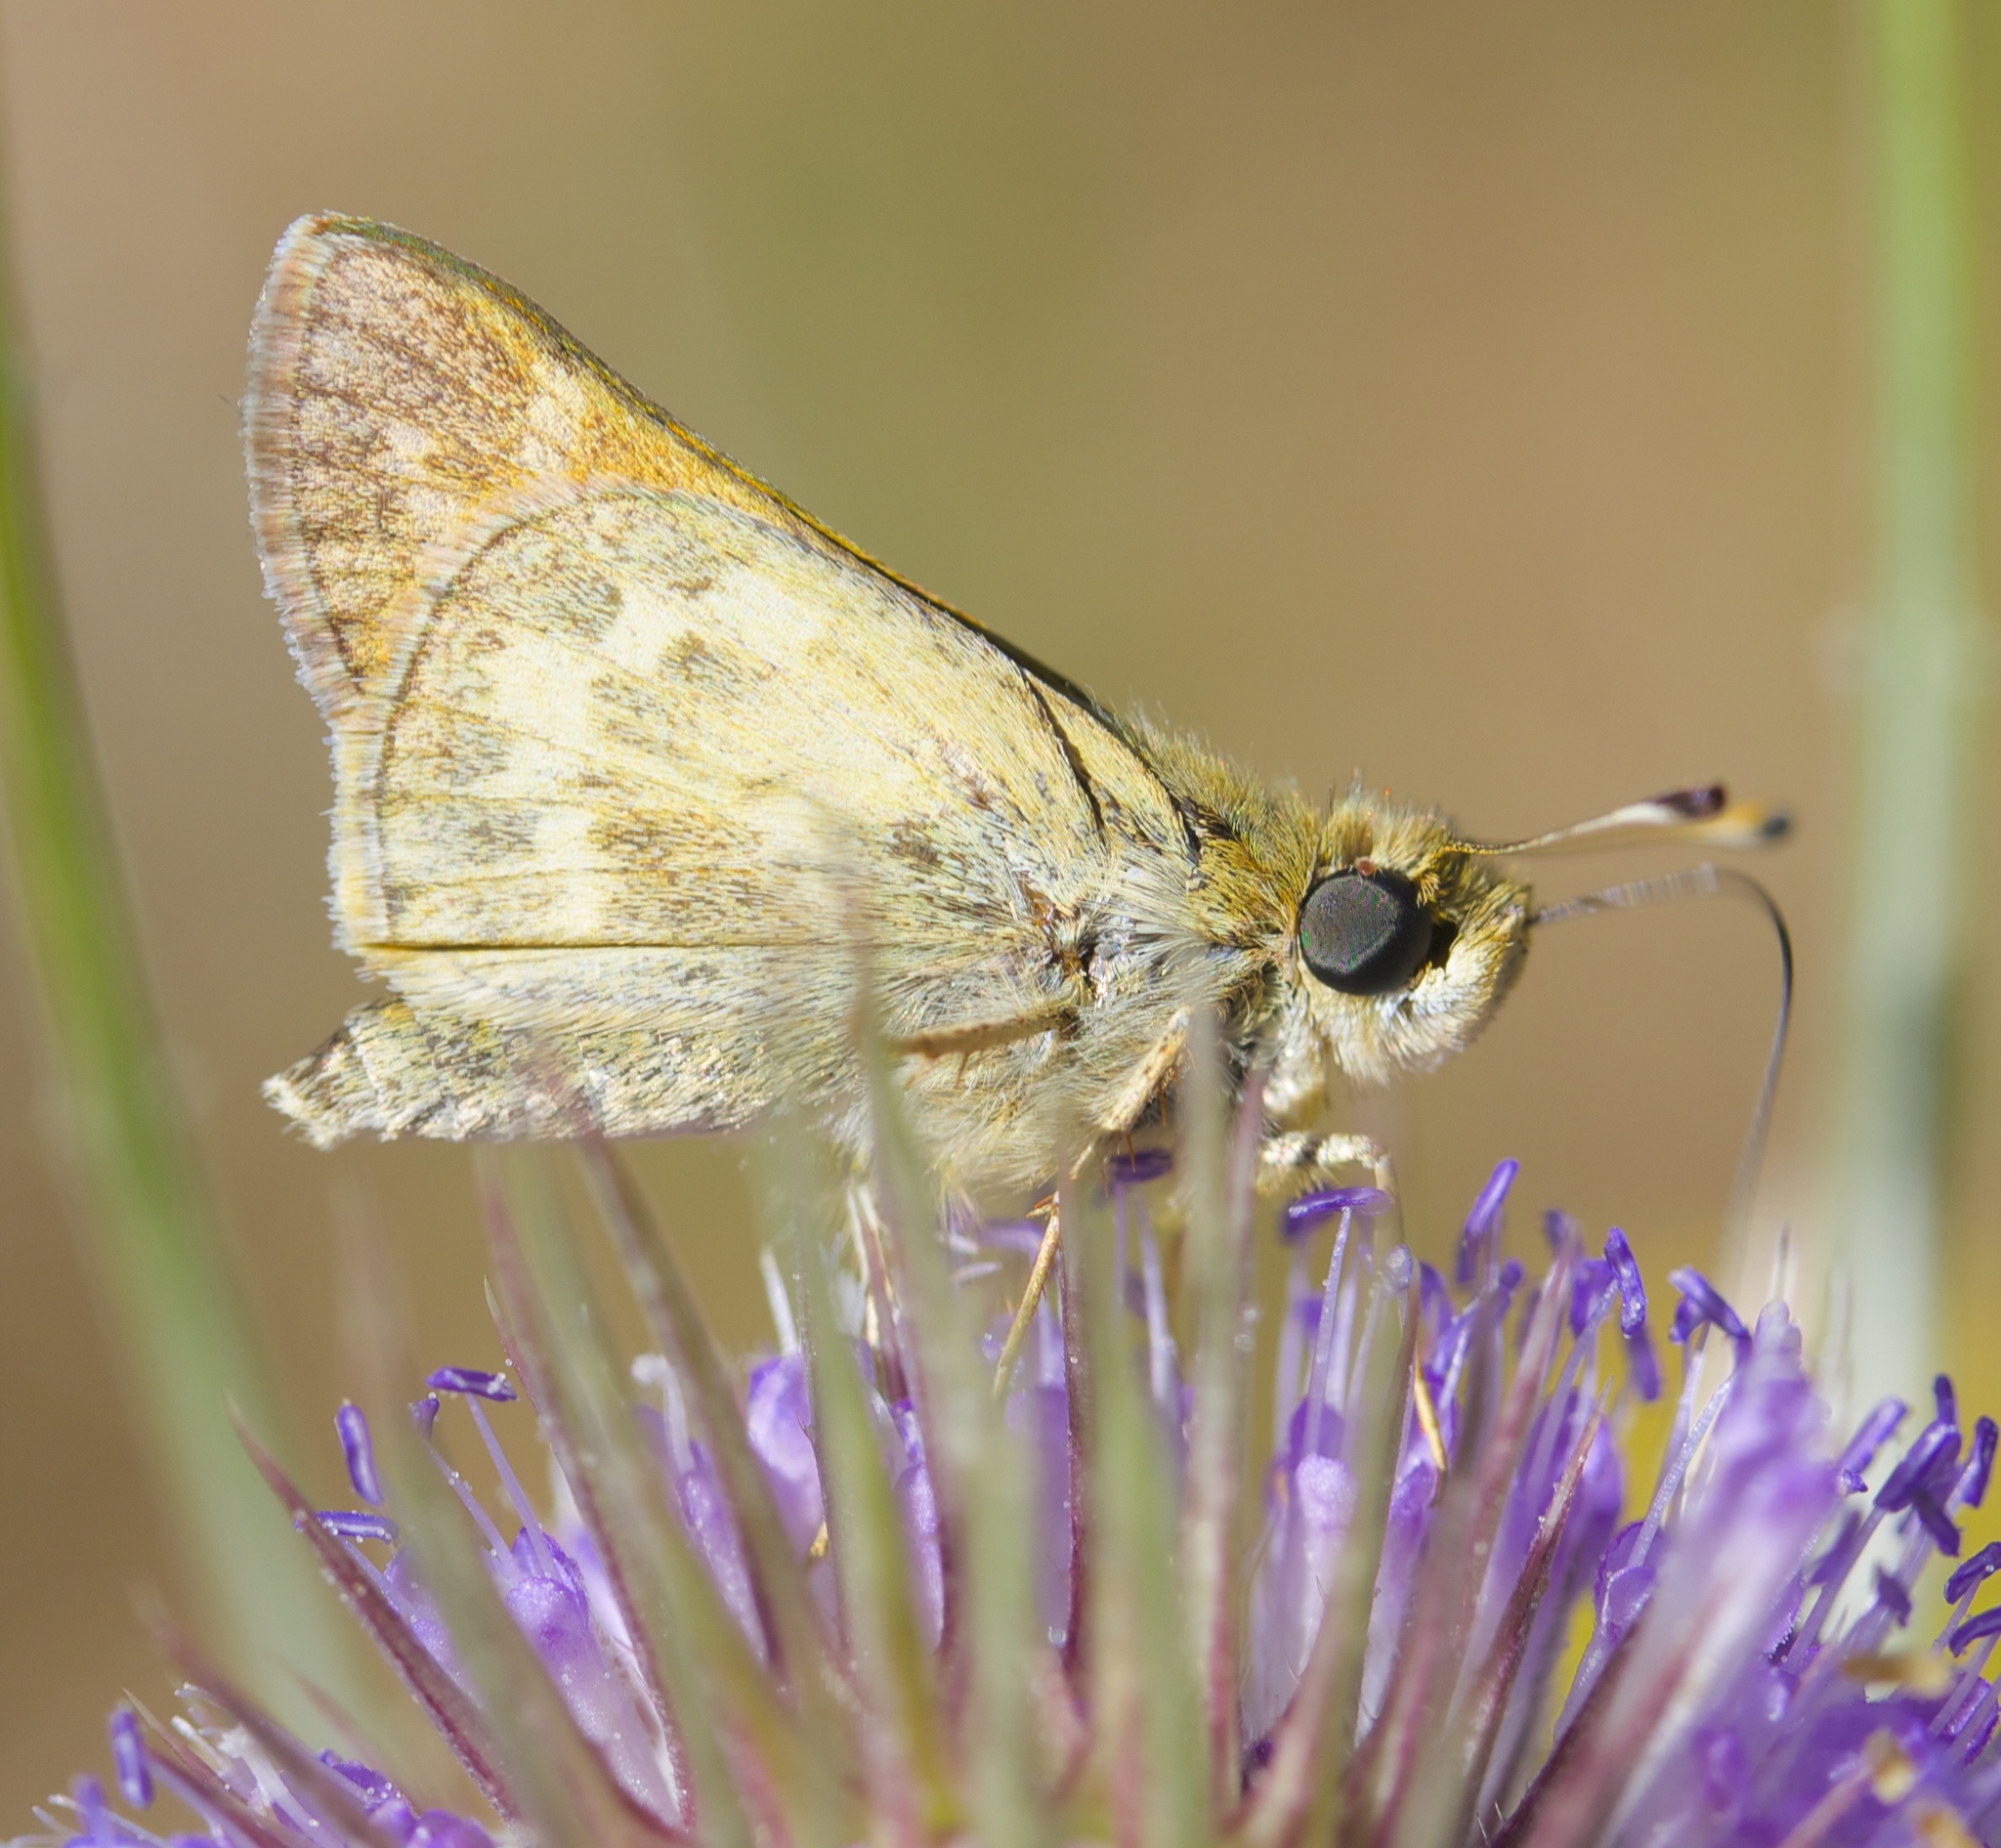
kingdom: Animalia
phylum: Arthropoda
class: Insecta
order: Lepidoptera
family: Hesperiidae
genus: Atalopedes
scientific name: Atalopedes campestris
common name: Sachem
